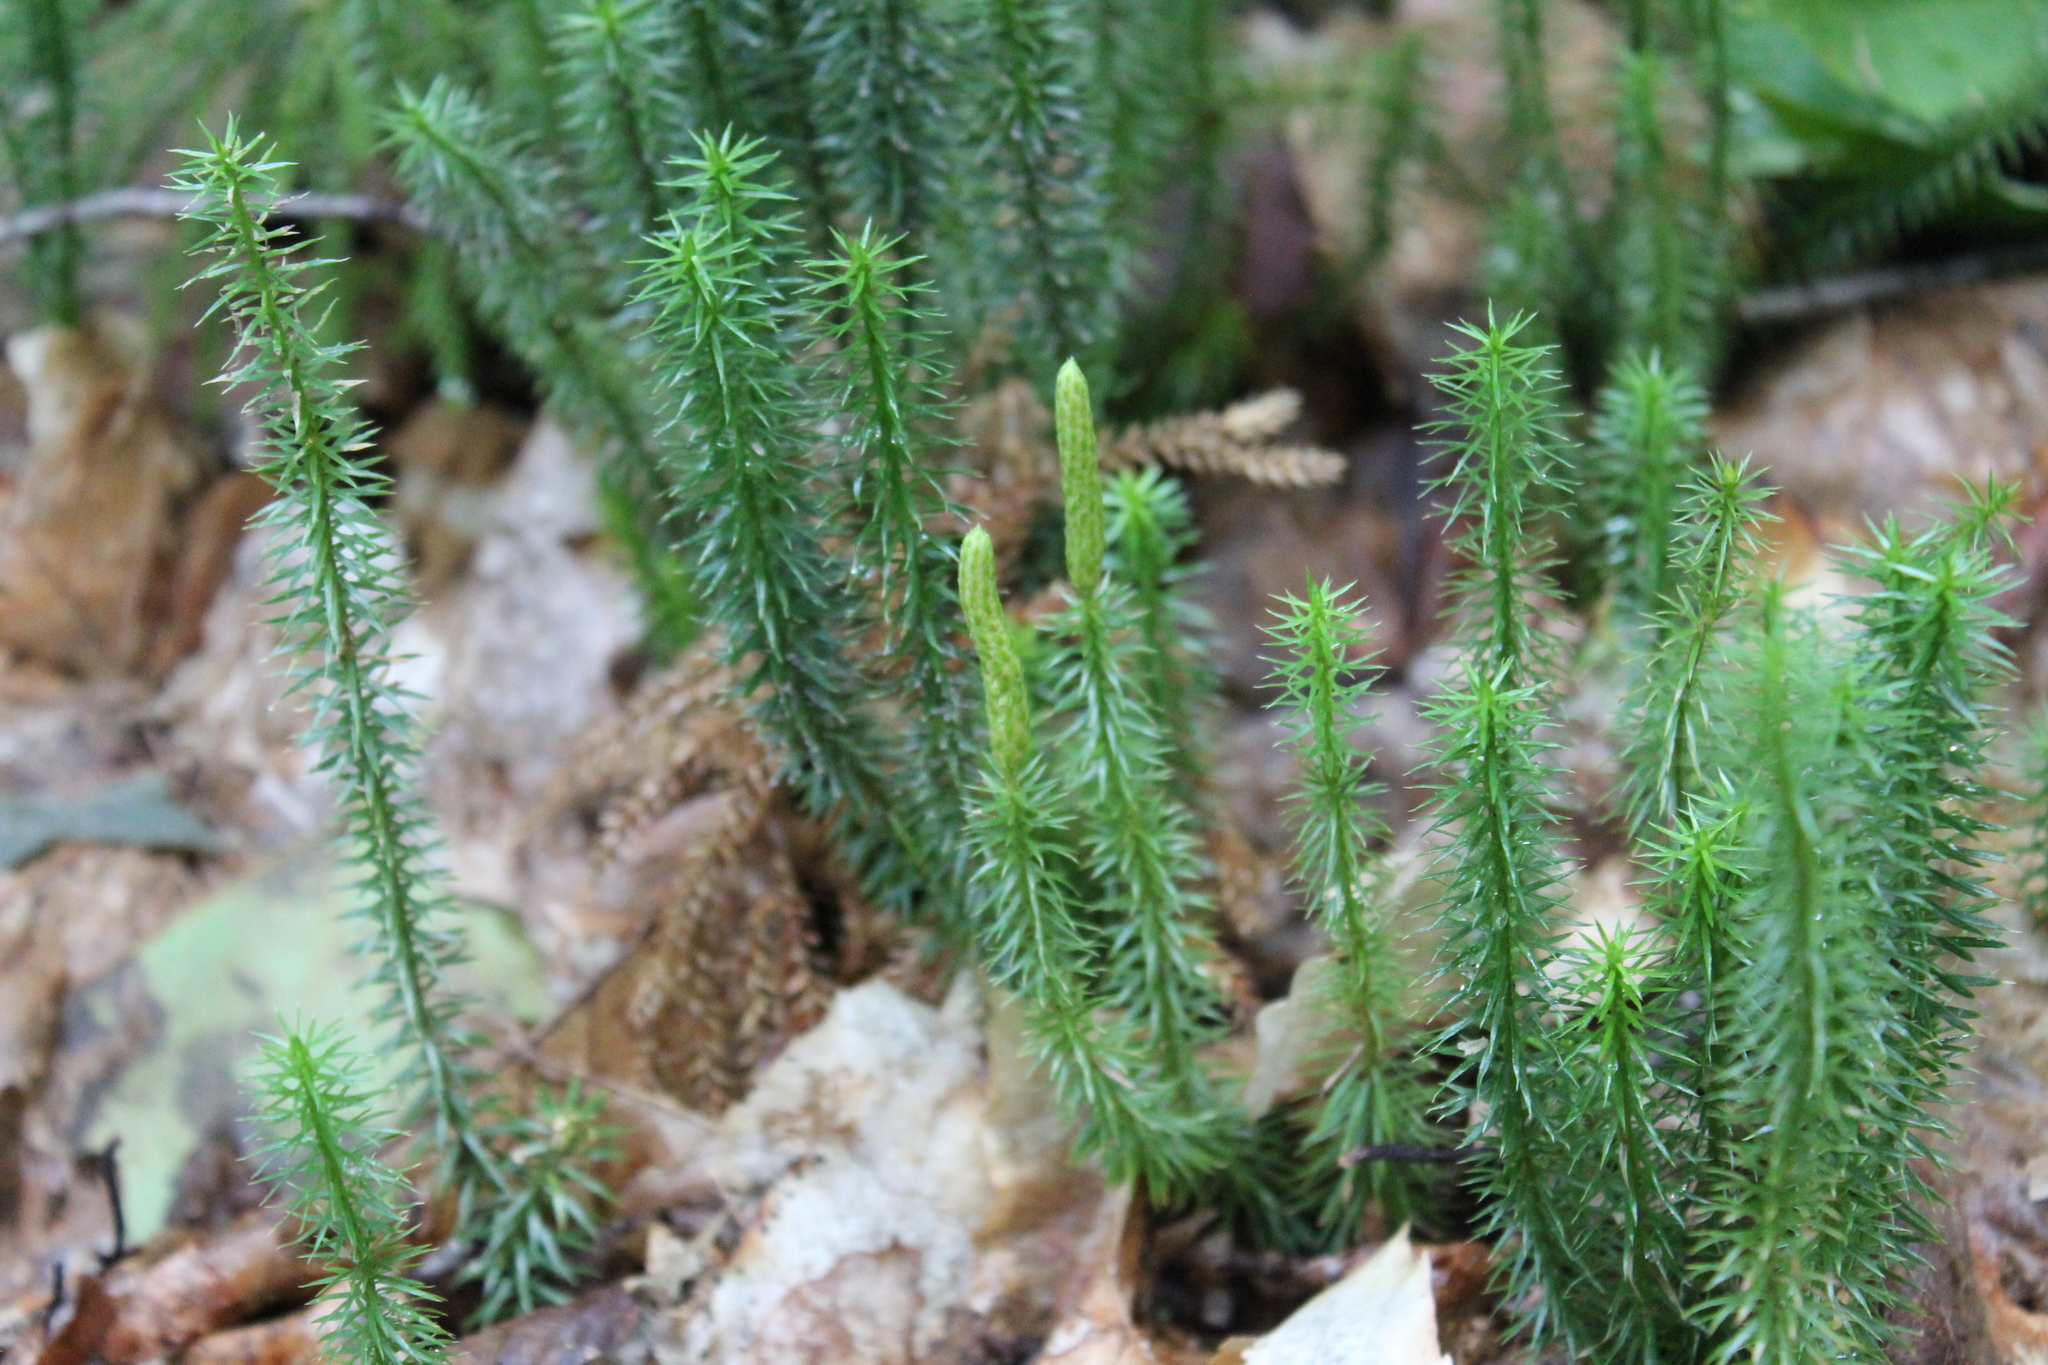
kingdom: Plantae
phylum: Tracheophyta
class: Lycopodiopsida
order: Lycopodiales
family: Lycopodiaceae
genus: Spinulum
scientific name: Spinulum annotinum
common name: Interrupted club-moss
